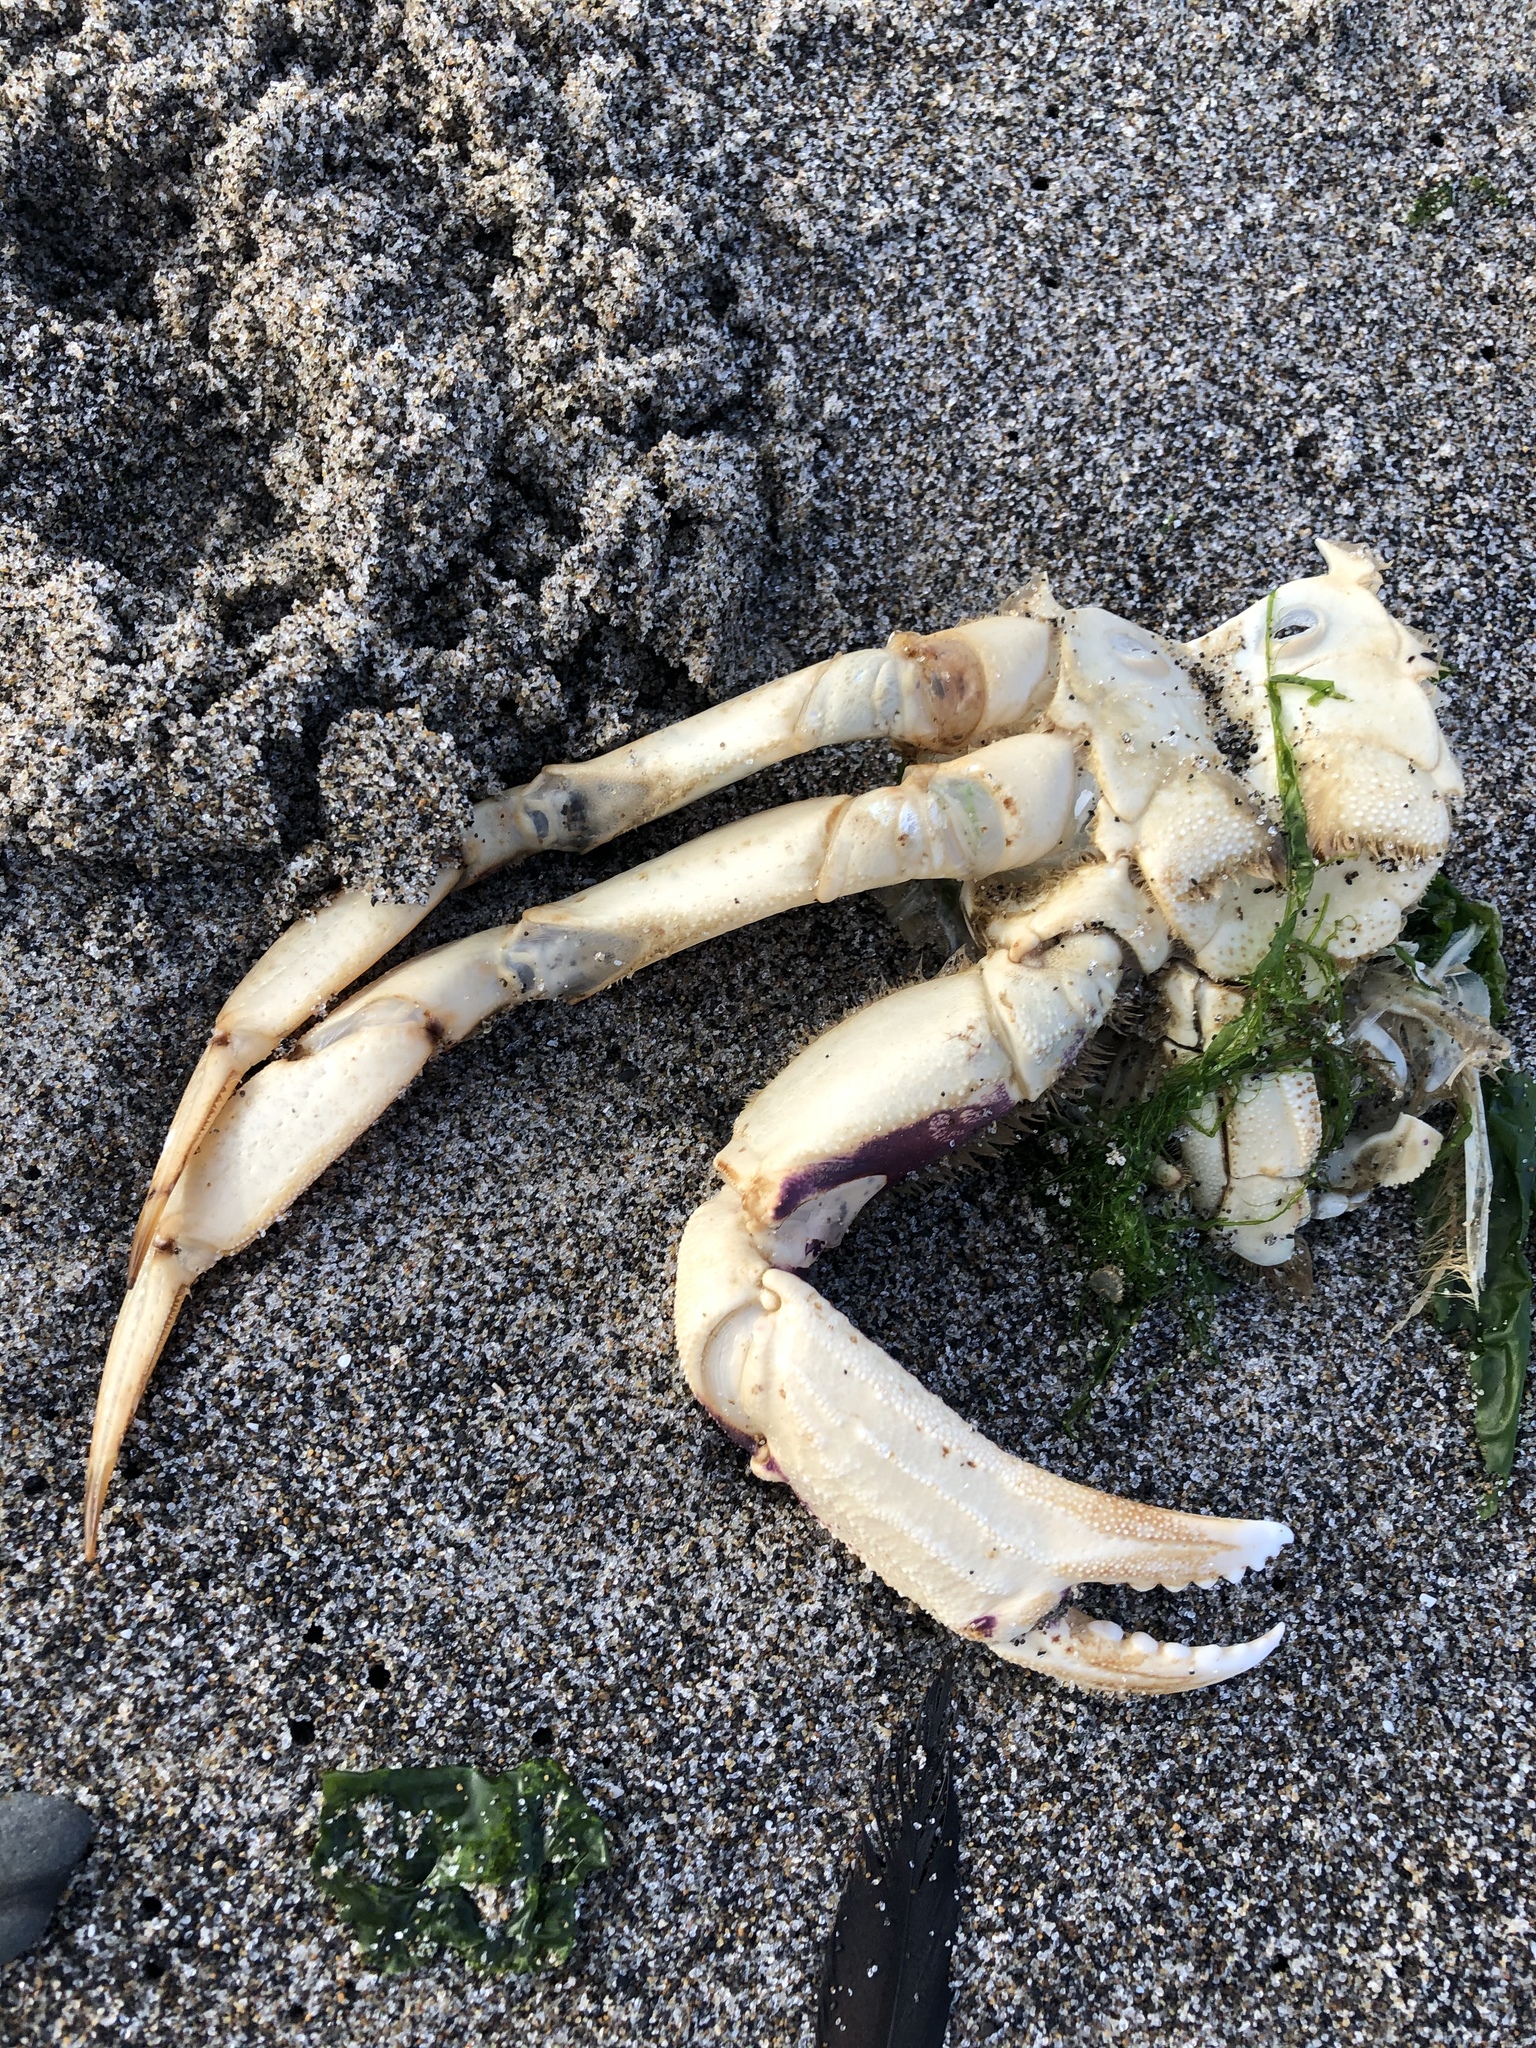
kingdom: Animalia
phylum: Arthropoda
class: Malacostraca
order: Decapoda
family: Cancridae
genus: Metacarcinus
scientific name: Metacarcinus magister
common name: Californian crab
